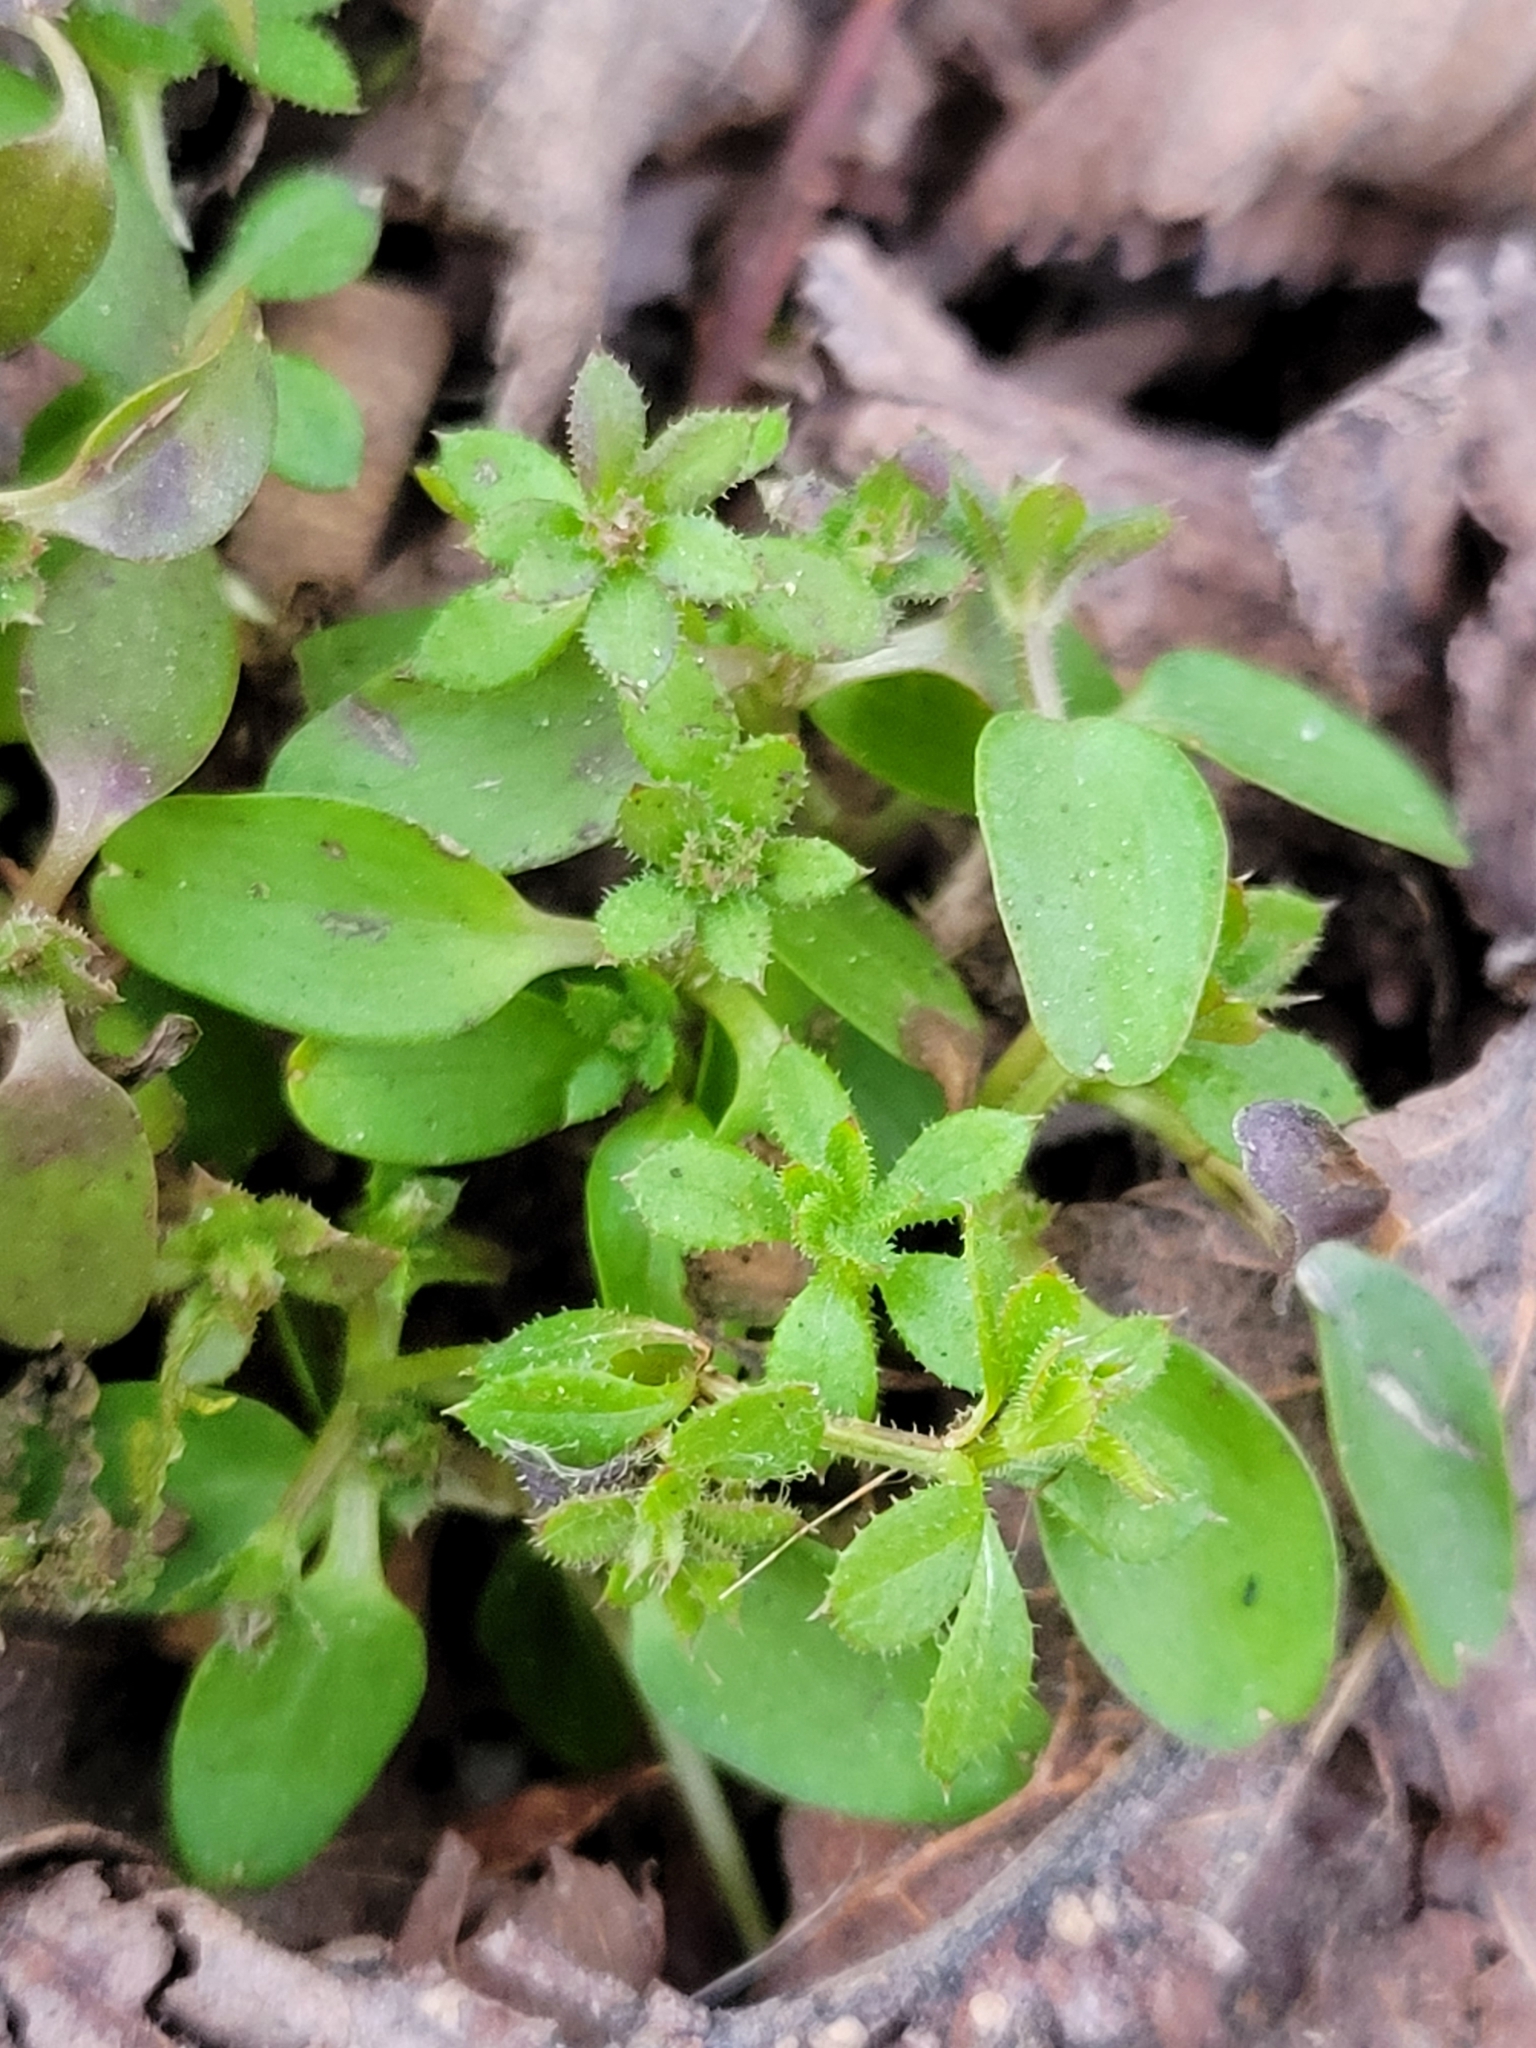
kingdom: Plantae
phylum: Tracheophyta
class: Magnoliopsida
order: Gentianales
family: Rubiaceae
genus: Galium
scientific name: Galium aparine
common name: Cleavers
